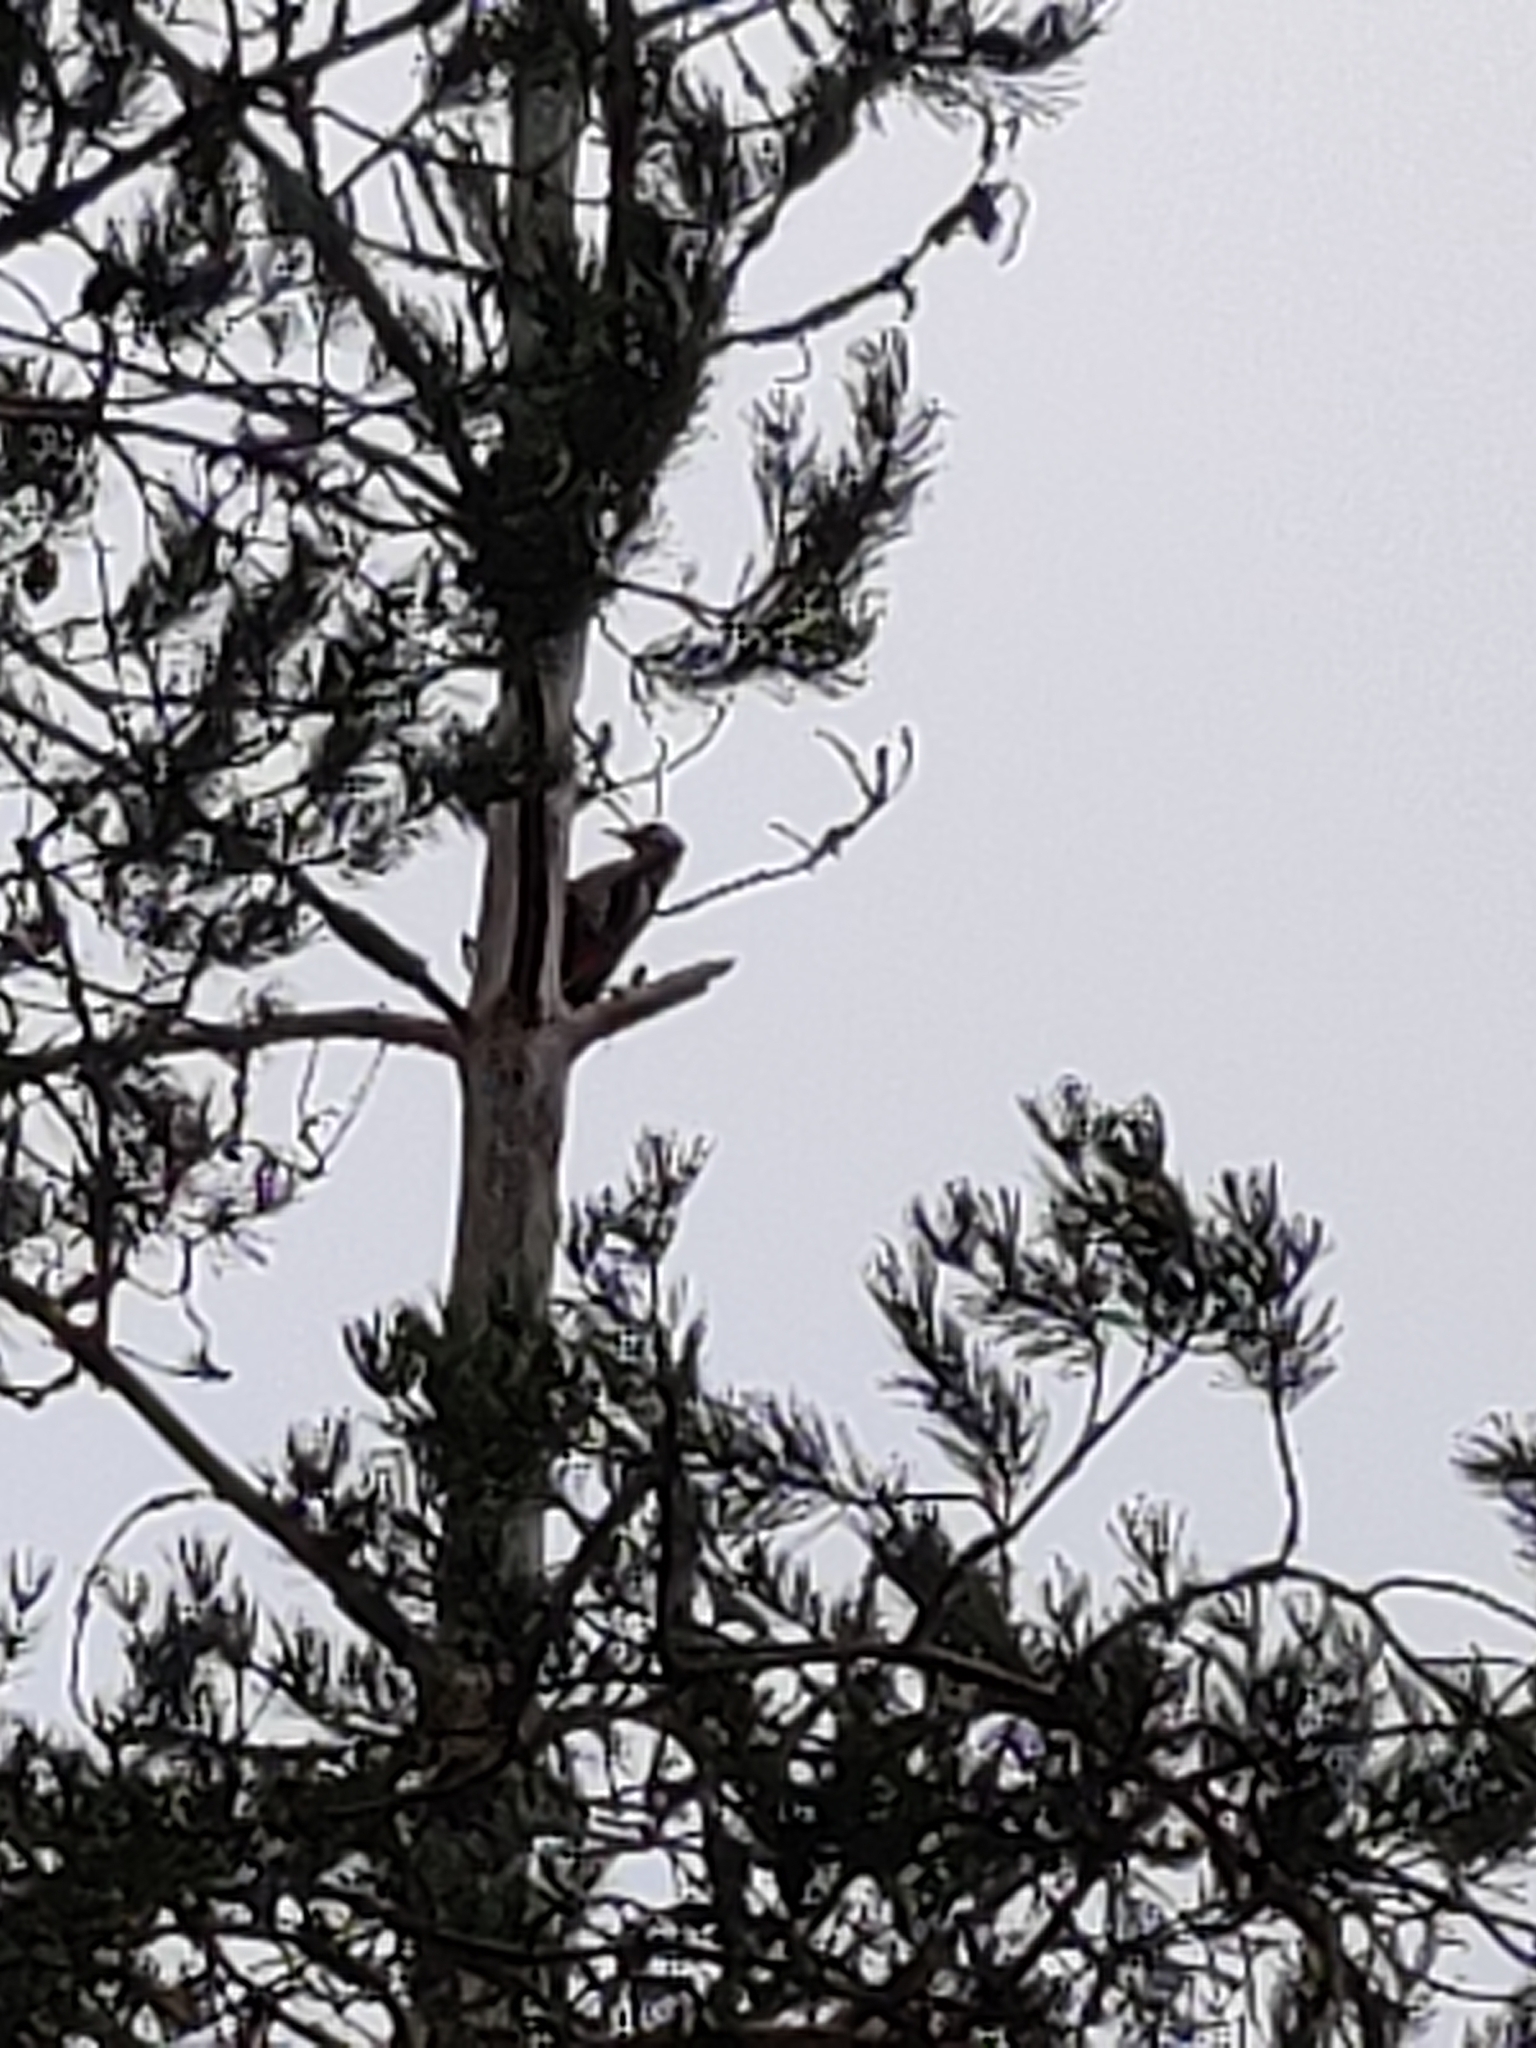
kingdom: Animalia
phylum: Chordata
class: Aves
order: Piciformes
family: Picidae
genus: Dendrocopos
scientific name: Dendrocopos major
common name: Great spotted woodpecker
